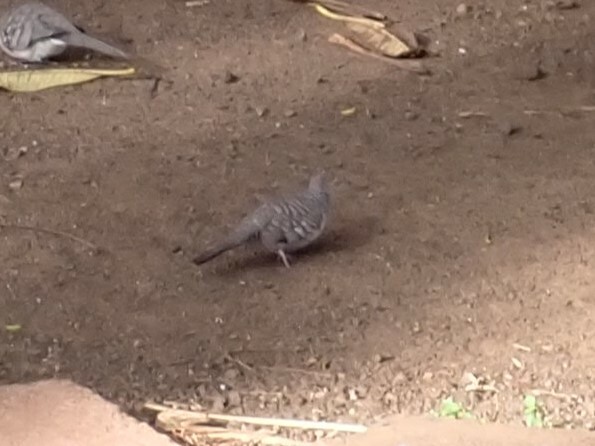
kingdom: Animalia
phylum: Chordata
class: Aves
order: Columbiformes
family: Columbidae
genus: Geopelia
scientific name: Geopelia striata
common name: Zebra dove
